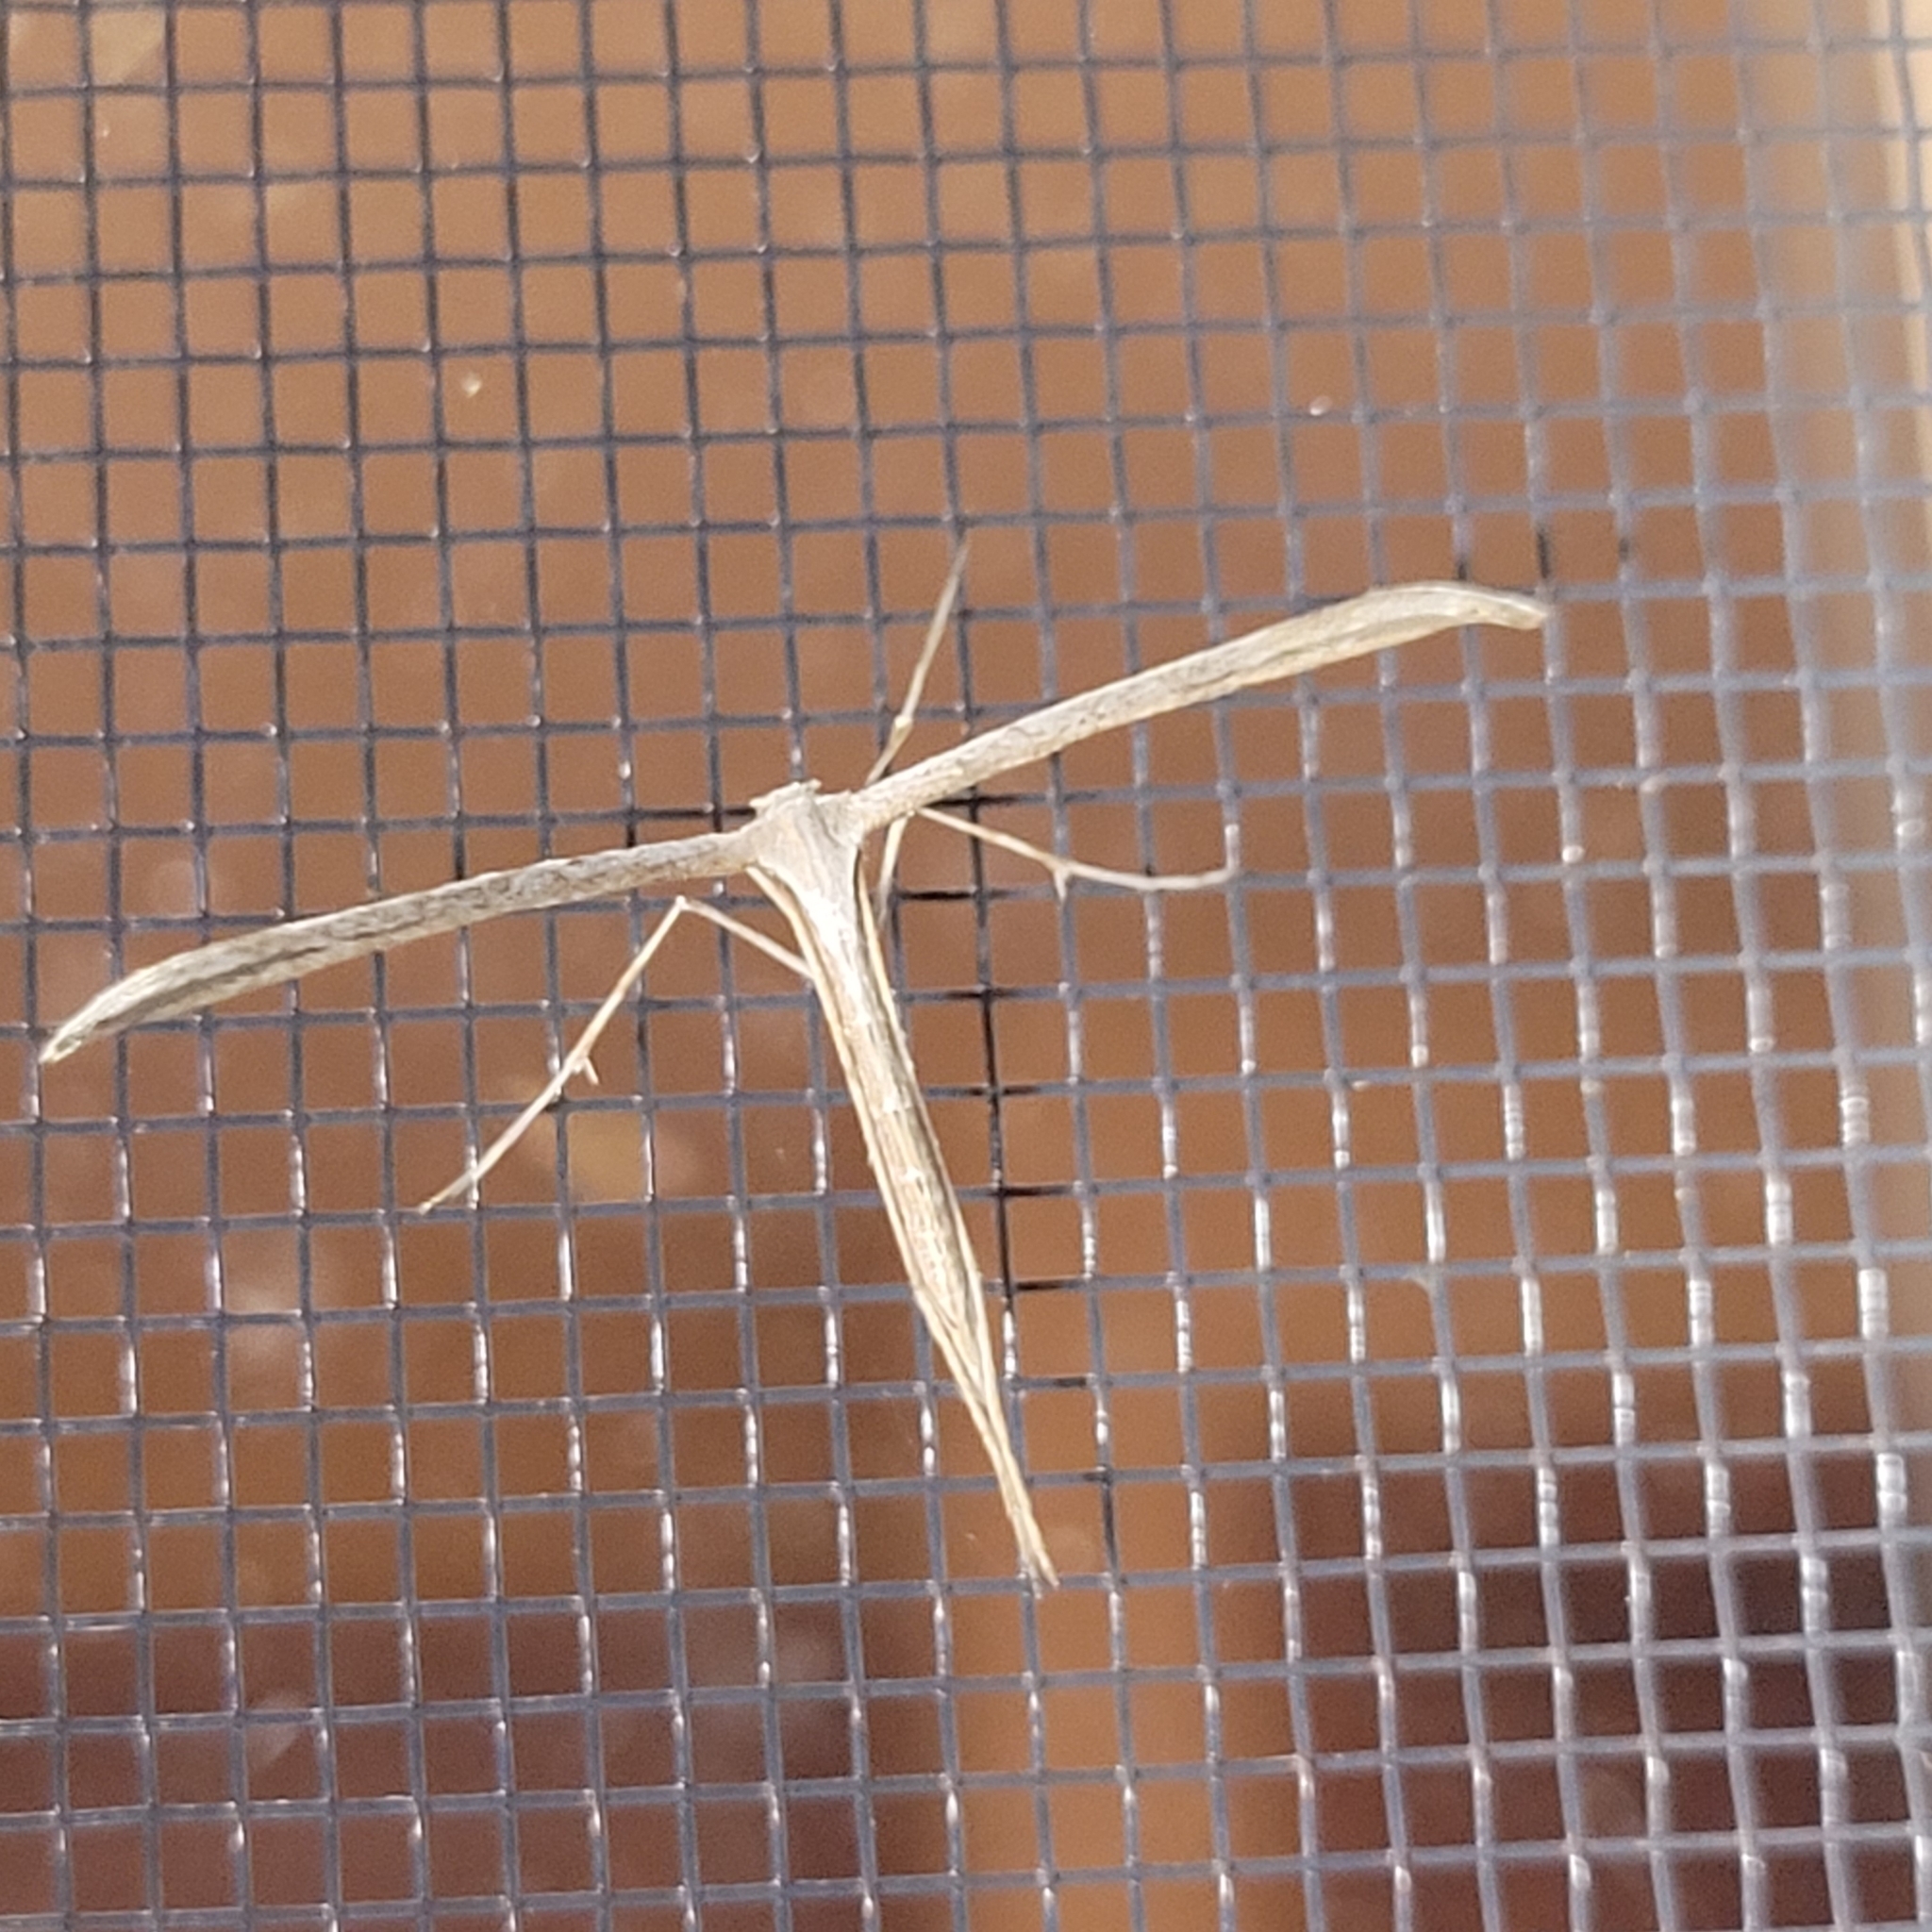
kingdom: Animalia
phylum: Arthropoda
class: Insecta
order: Lepidoptera
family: Pterophoridae
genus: Emmelina
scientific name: Emmelina monodactyla
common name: Common plume
